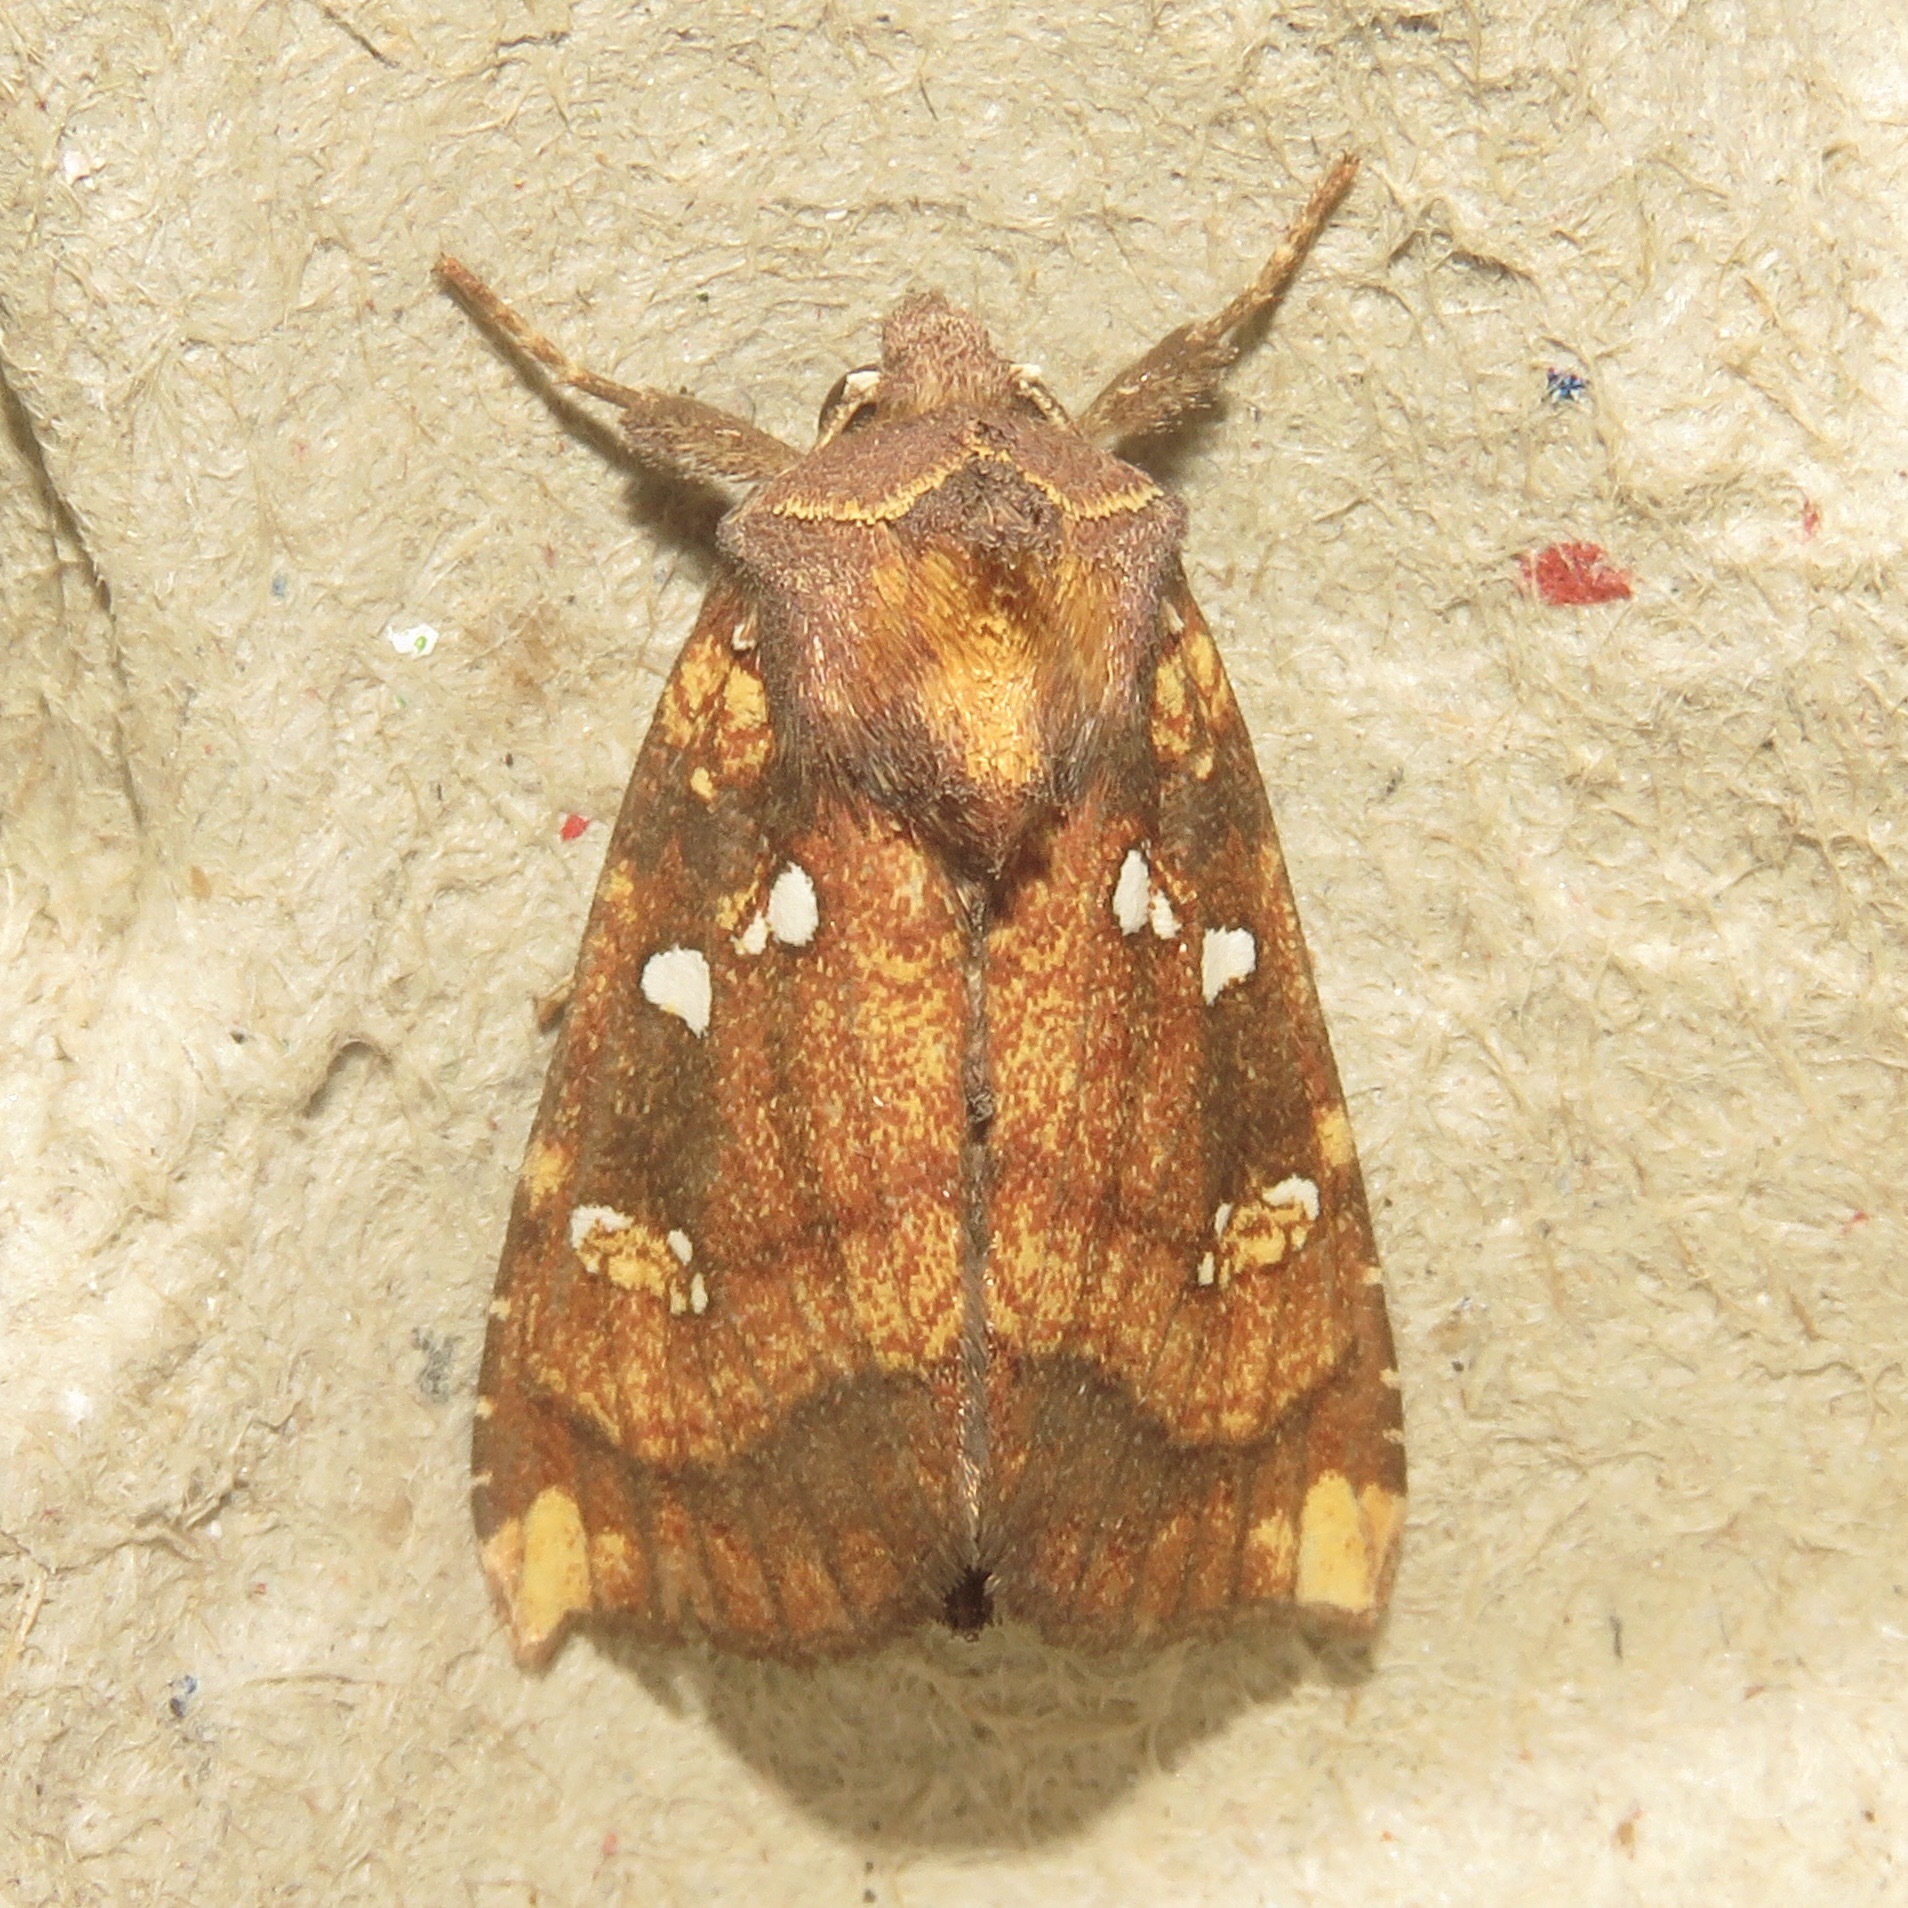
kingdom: Animalia
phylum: Arthropoda
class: Insecta
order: Lepidoptera
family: Noctuidae
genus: Papaipema
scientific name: Papaipema arctivorens
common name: Northern burdock borer moth
